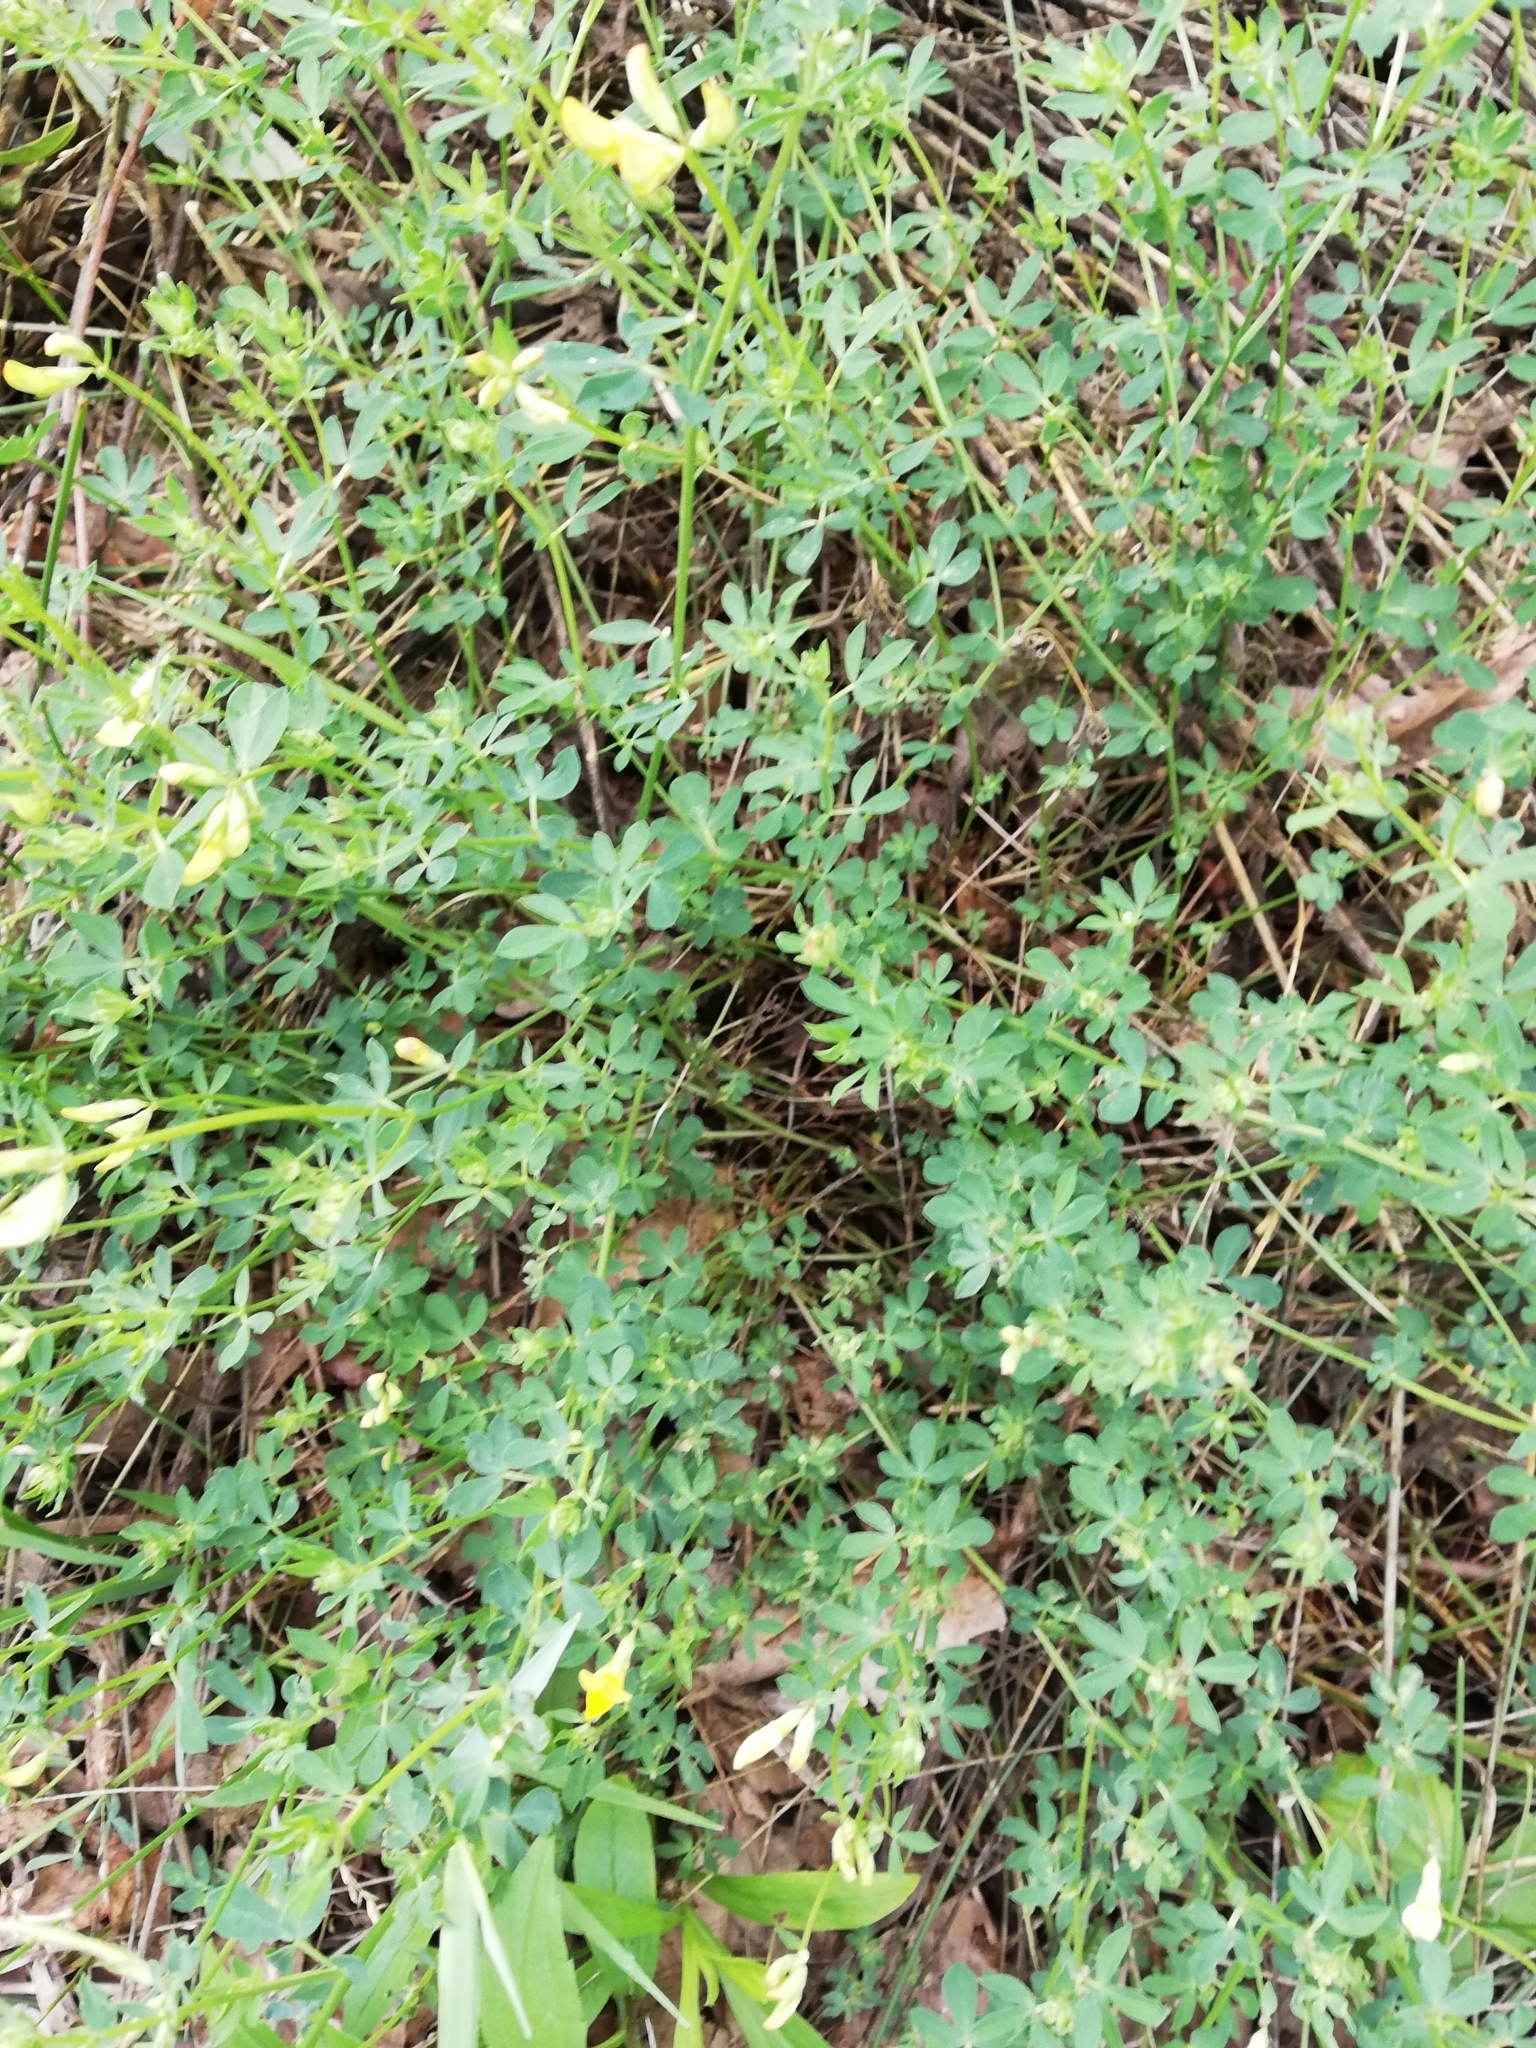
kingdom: Plantae
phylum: Tracheophyta
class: Magnoliopsida
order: Fabales
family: Fabaceae
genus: Lotus
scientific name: Lotus corniculatus
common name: Common bird's-foot-trefoil
